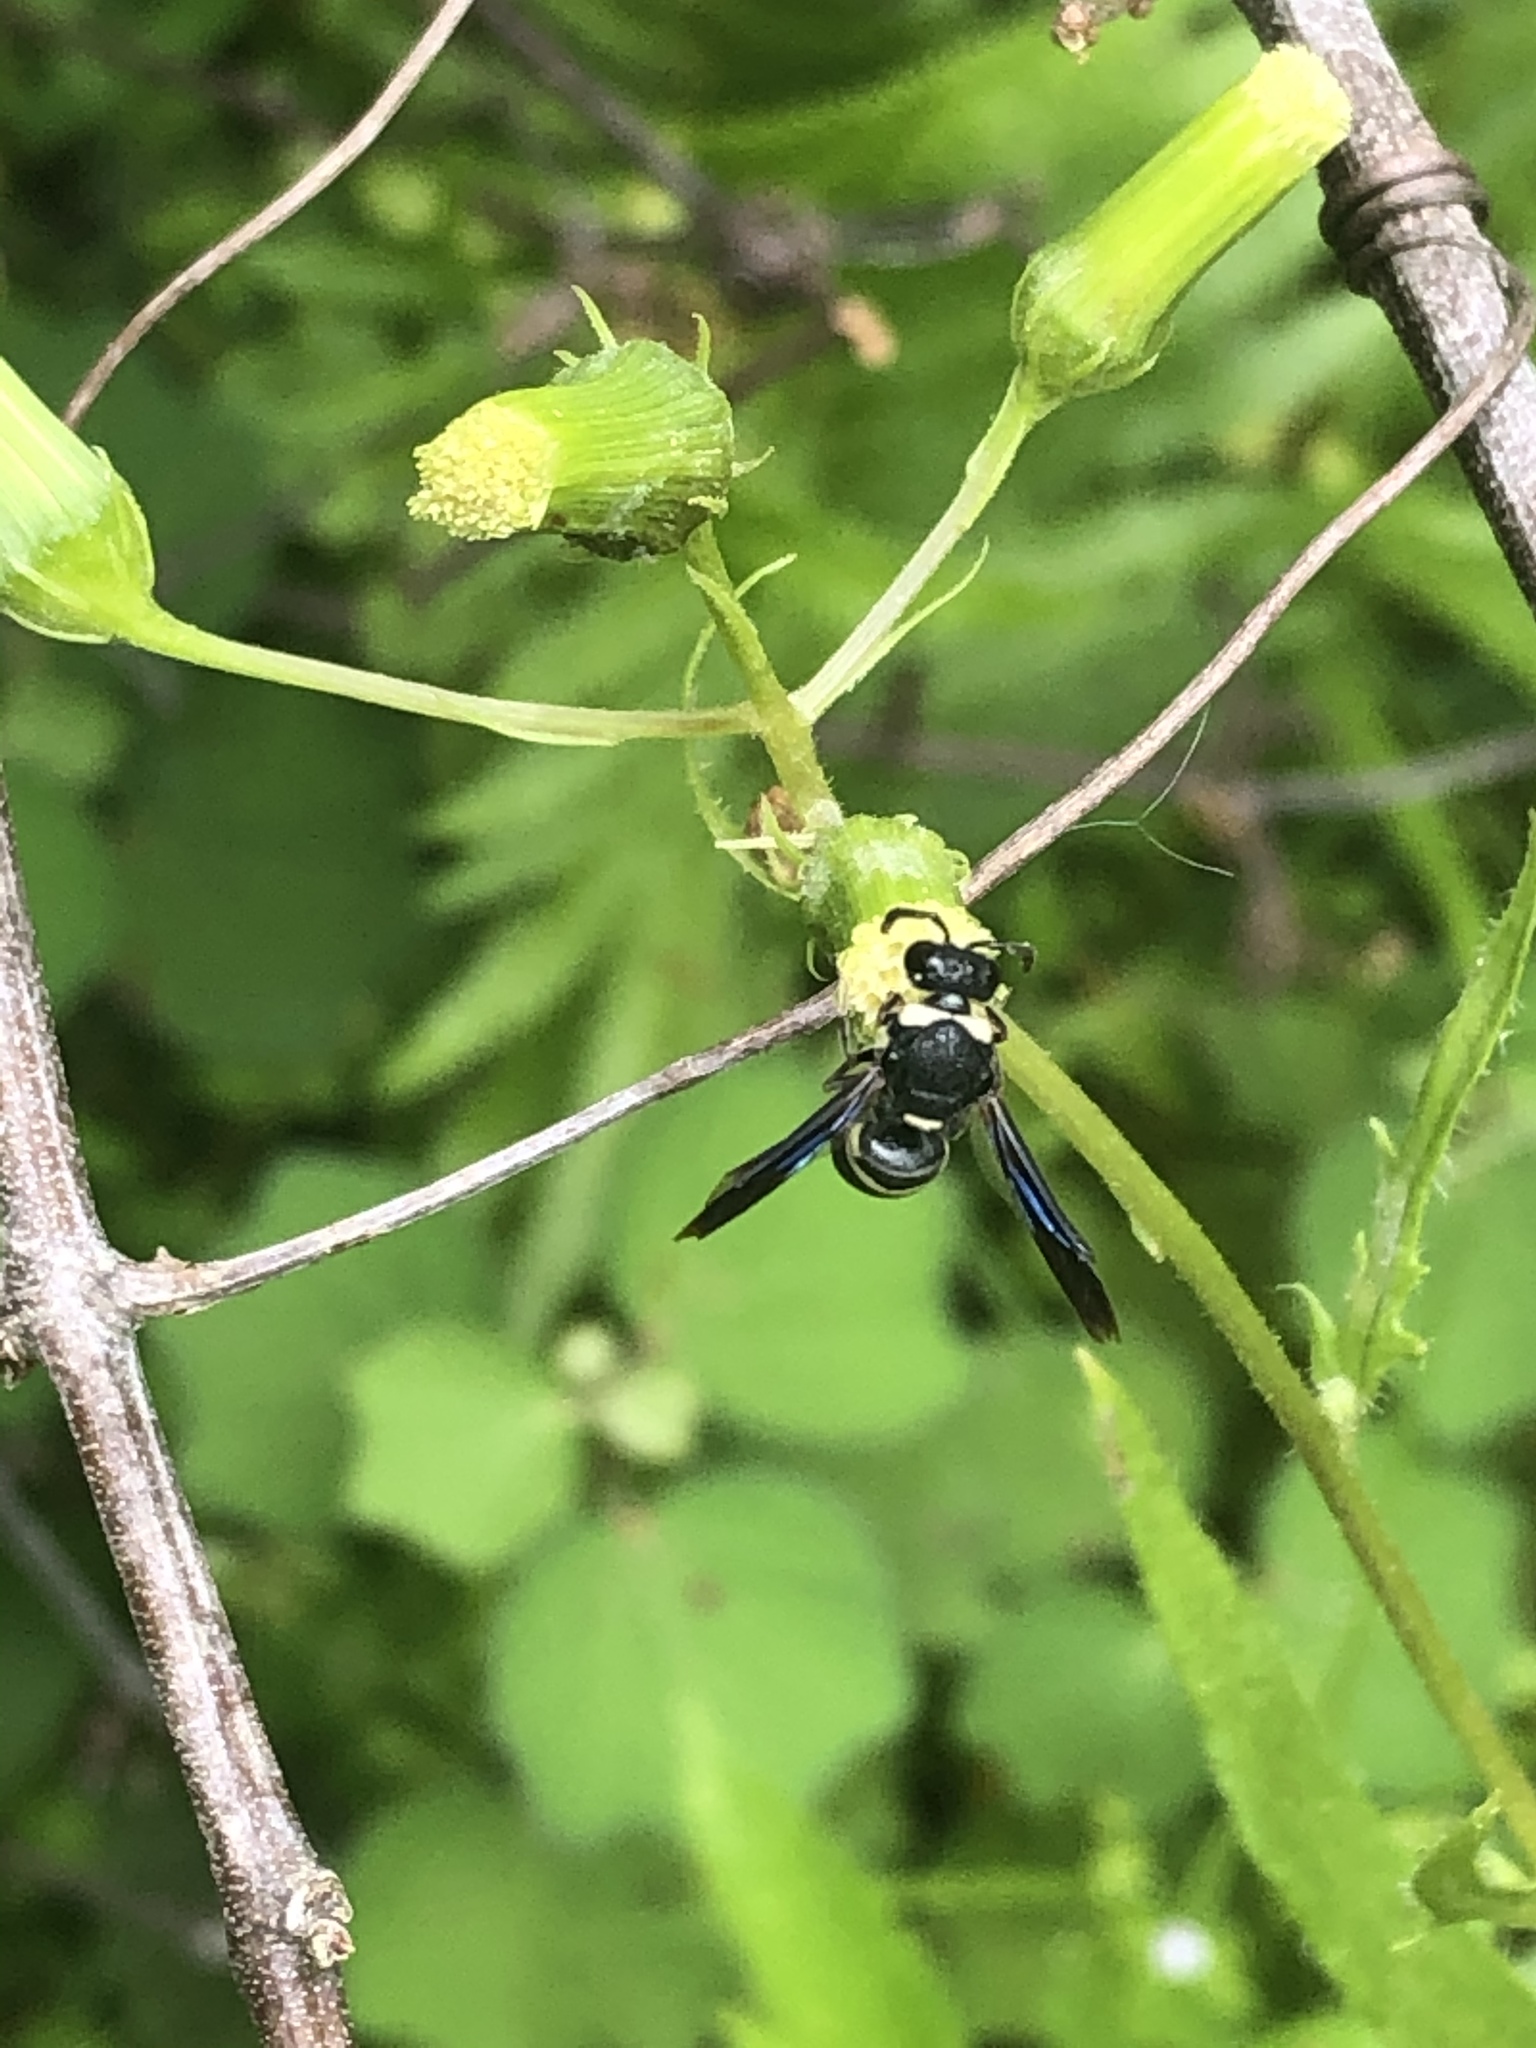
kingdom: Animalia
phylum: Arthropoda
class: Insecta
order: Hymenoptera
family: Eumenidae
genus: Euodynerus
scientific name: Euodynerus megaera
